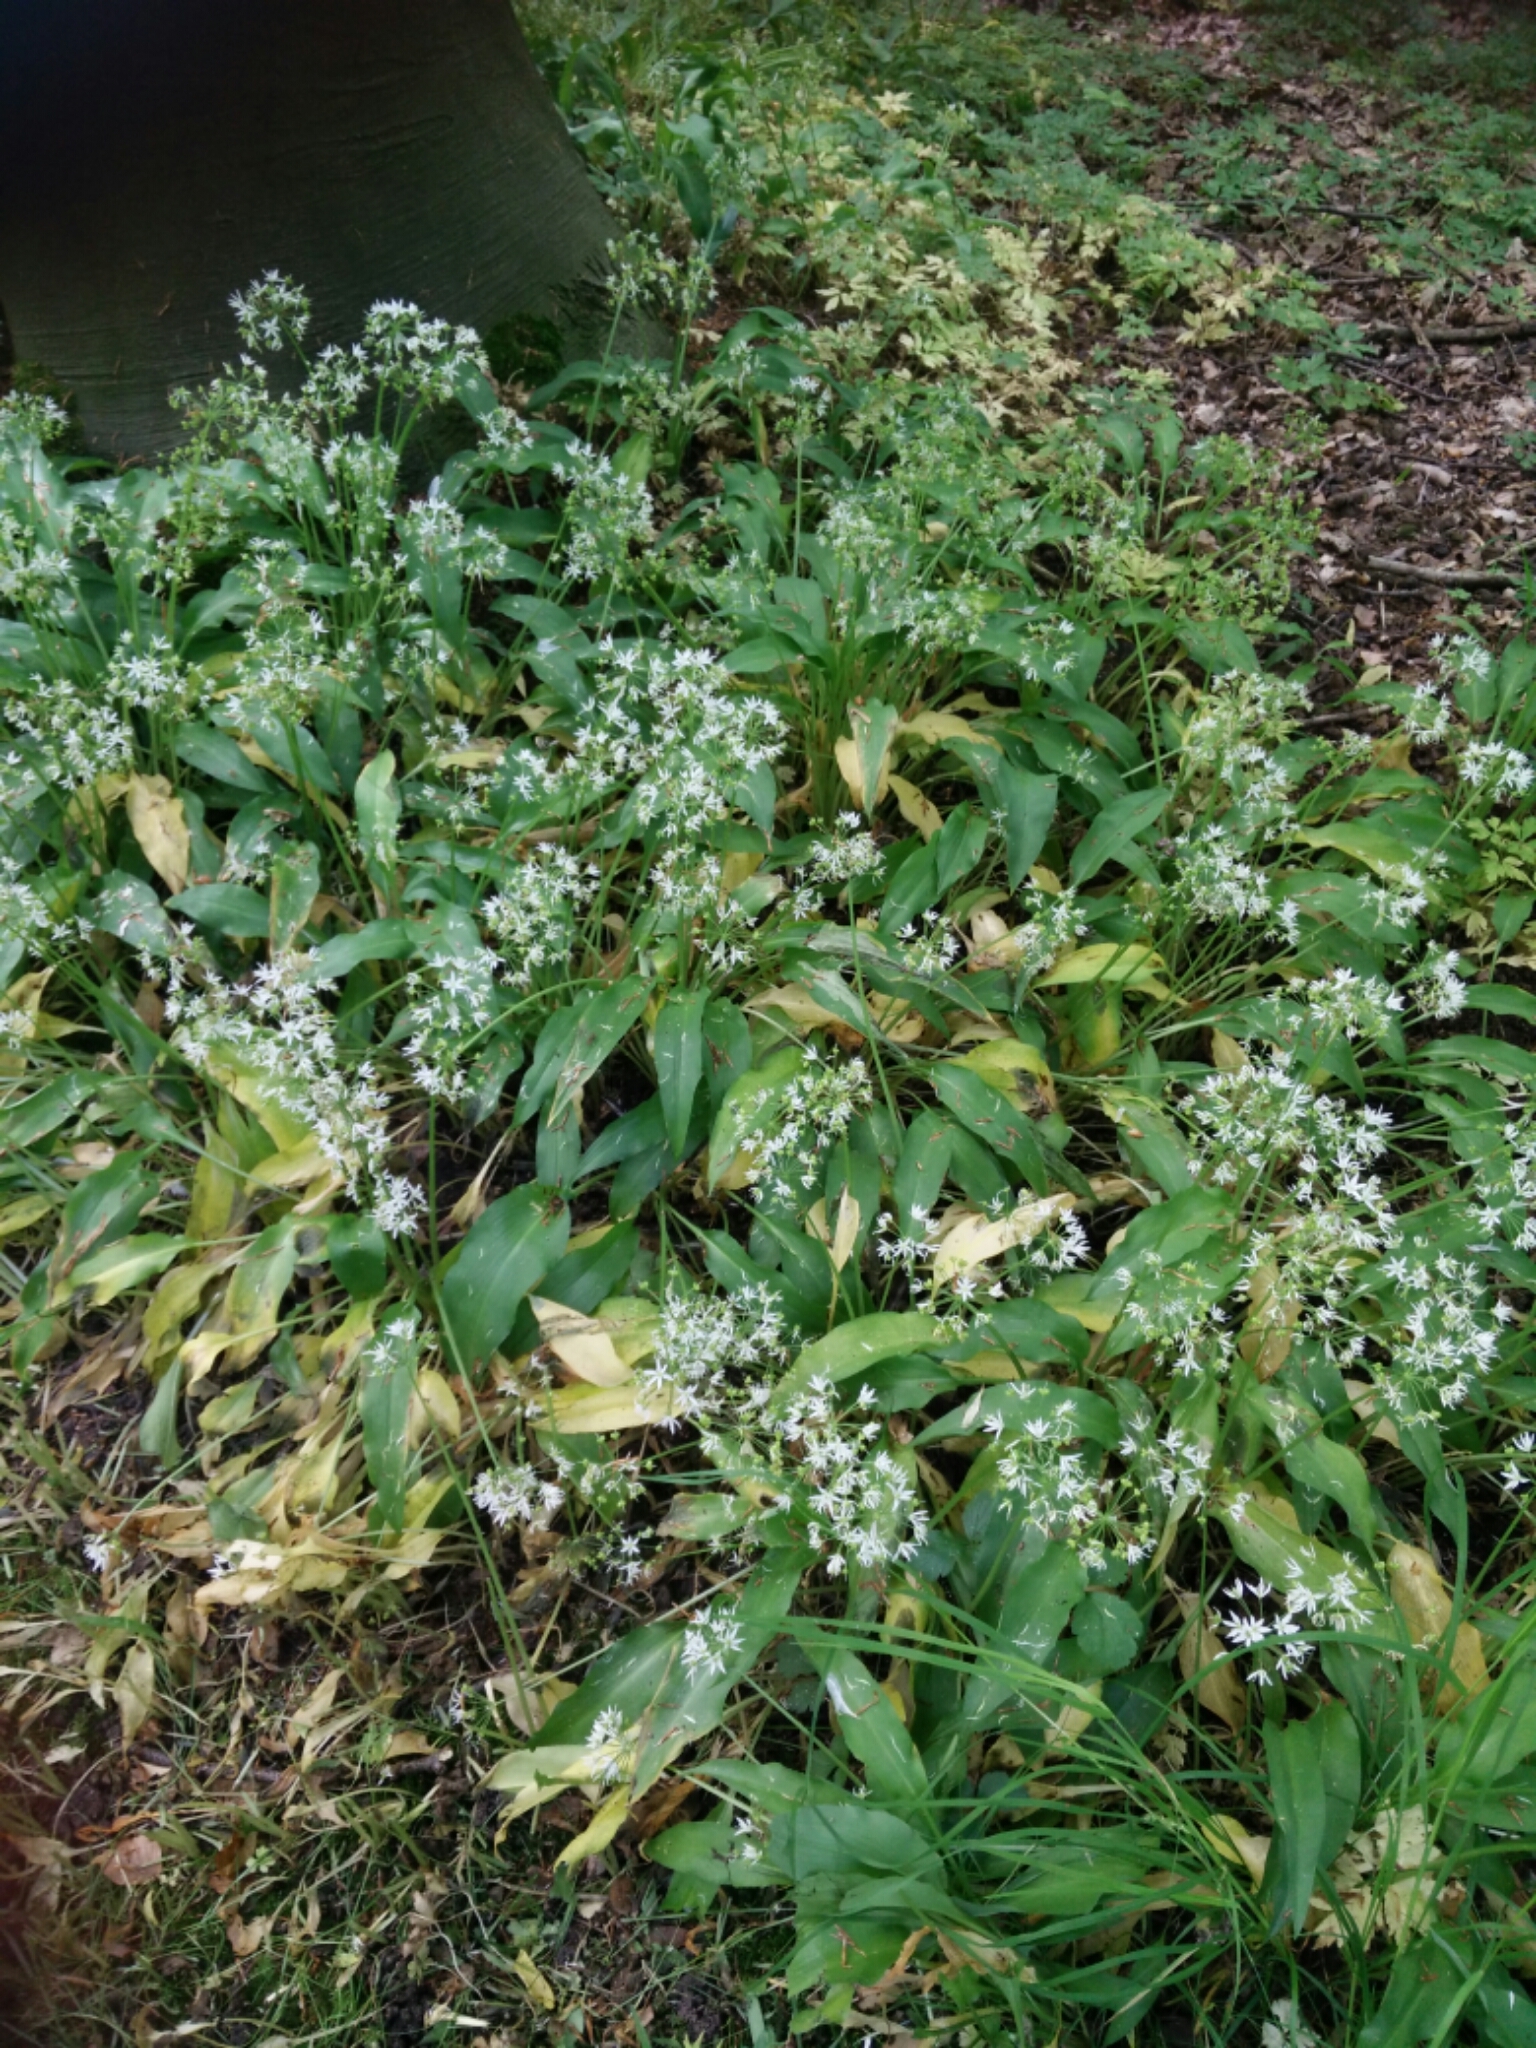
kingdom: Plantae
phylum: Tracheophyta
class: Liliopsida
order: Asparagales
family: Amaryllidaceae
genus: Allium
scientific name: Allium ursinum
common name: Ramsons
